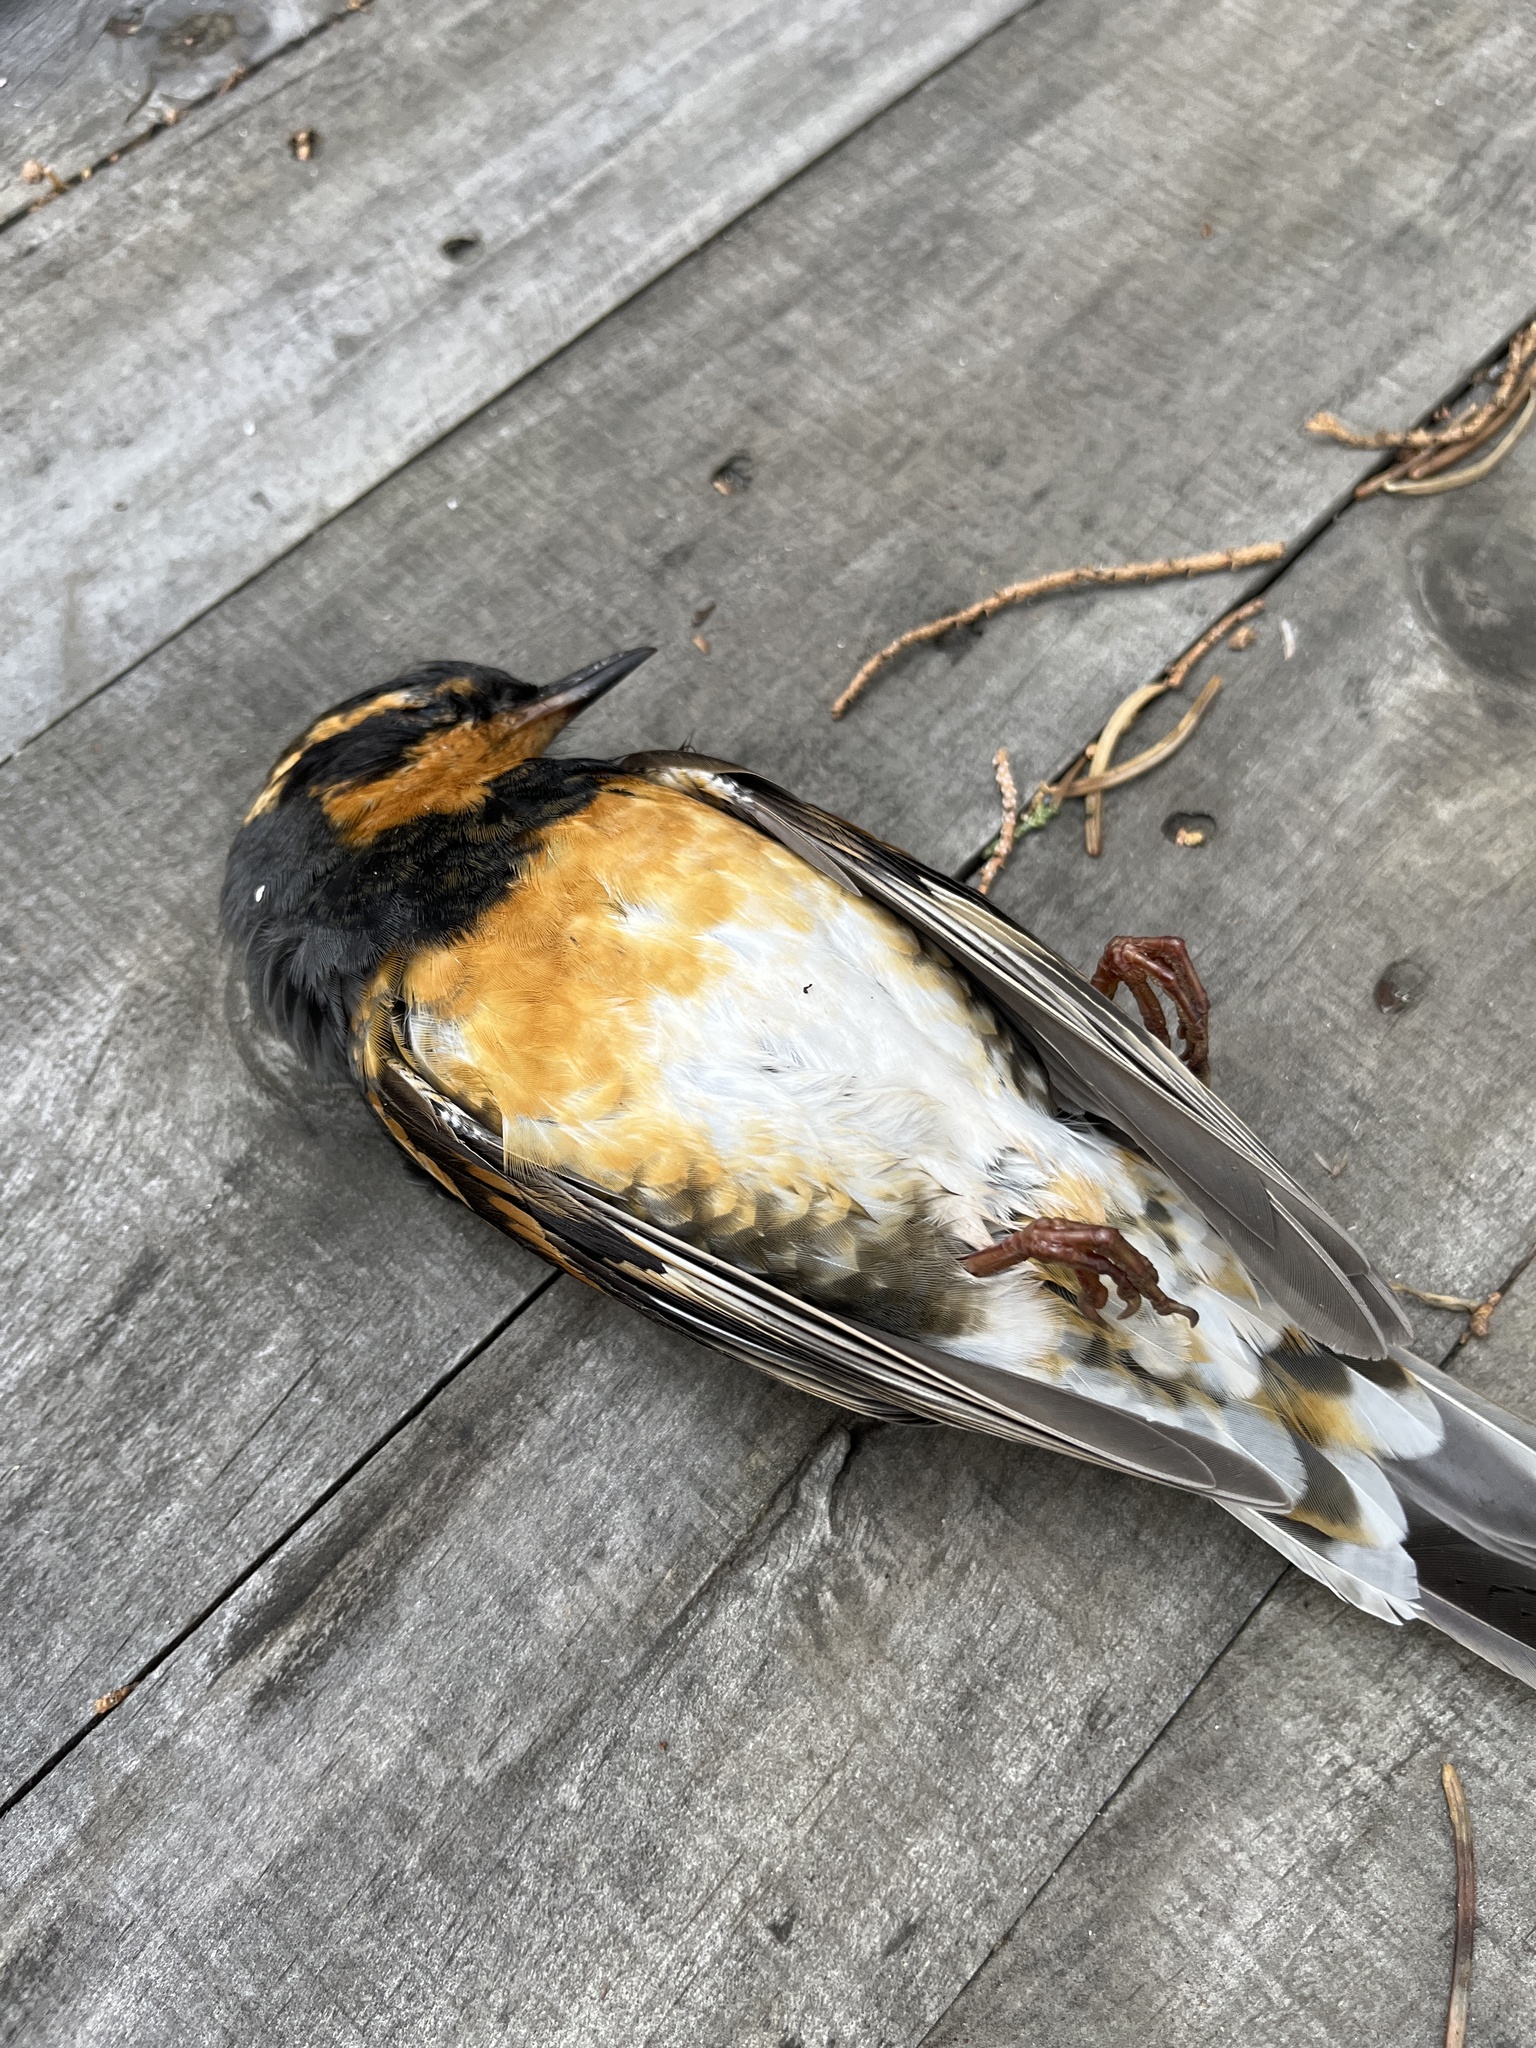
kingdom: Animalia
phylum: Chordata
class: Aves
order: Passeriformes
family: Turdidae
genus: Ixoreus
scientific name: Ixoreus naevius
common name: Varied thrush
